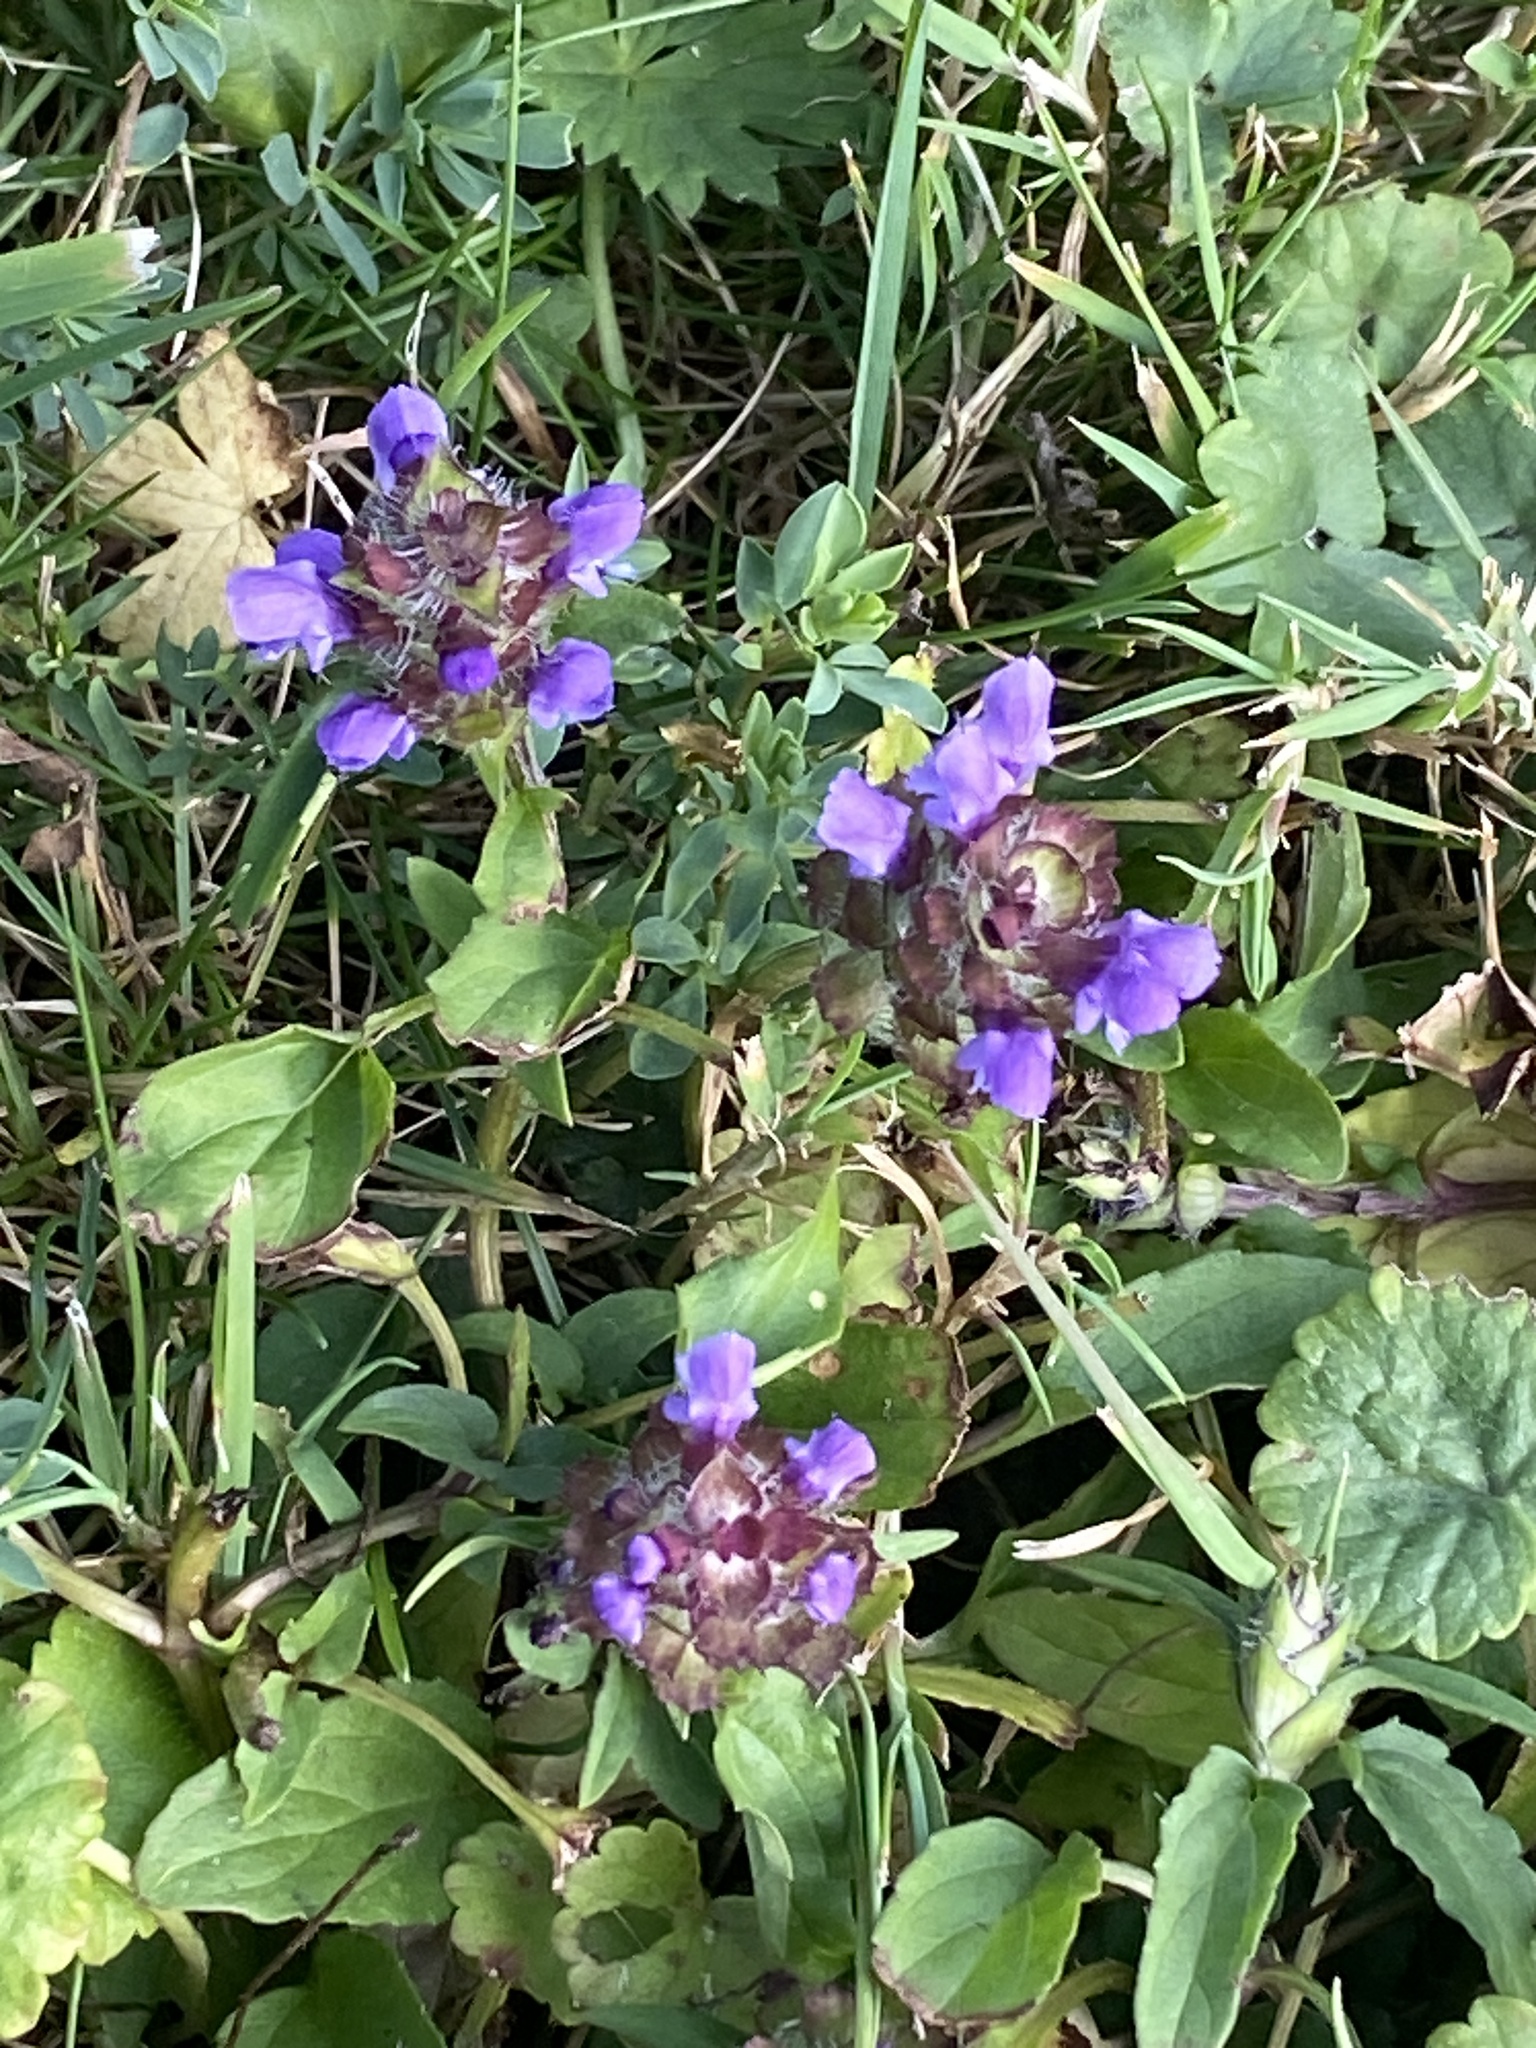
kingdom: Plantae
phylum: Tracheophyta
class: Magnoliopsida
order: Lamiales
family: Lamiaceae
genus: Prunella
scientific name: Prunella vulgaris
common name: Heal-all
